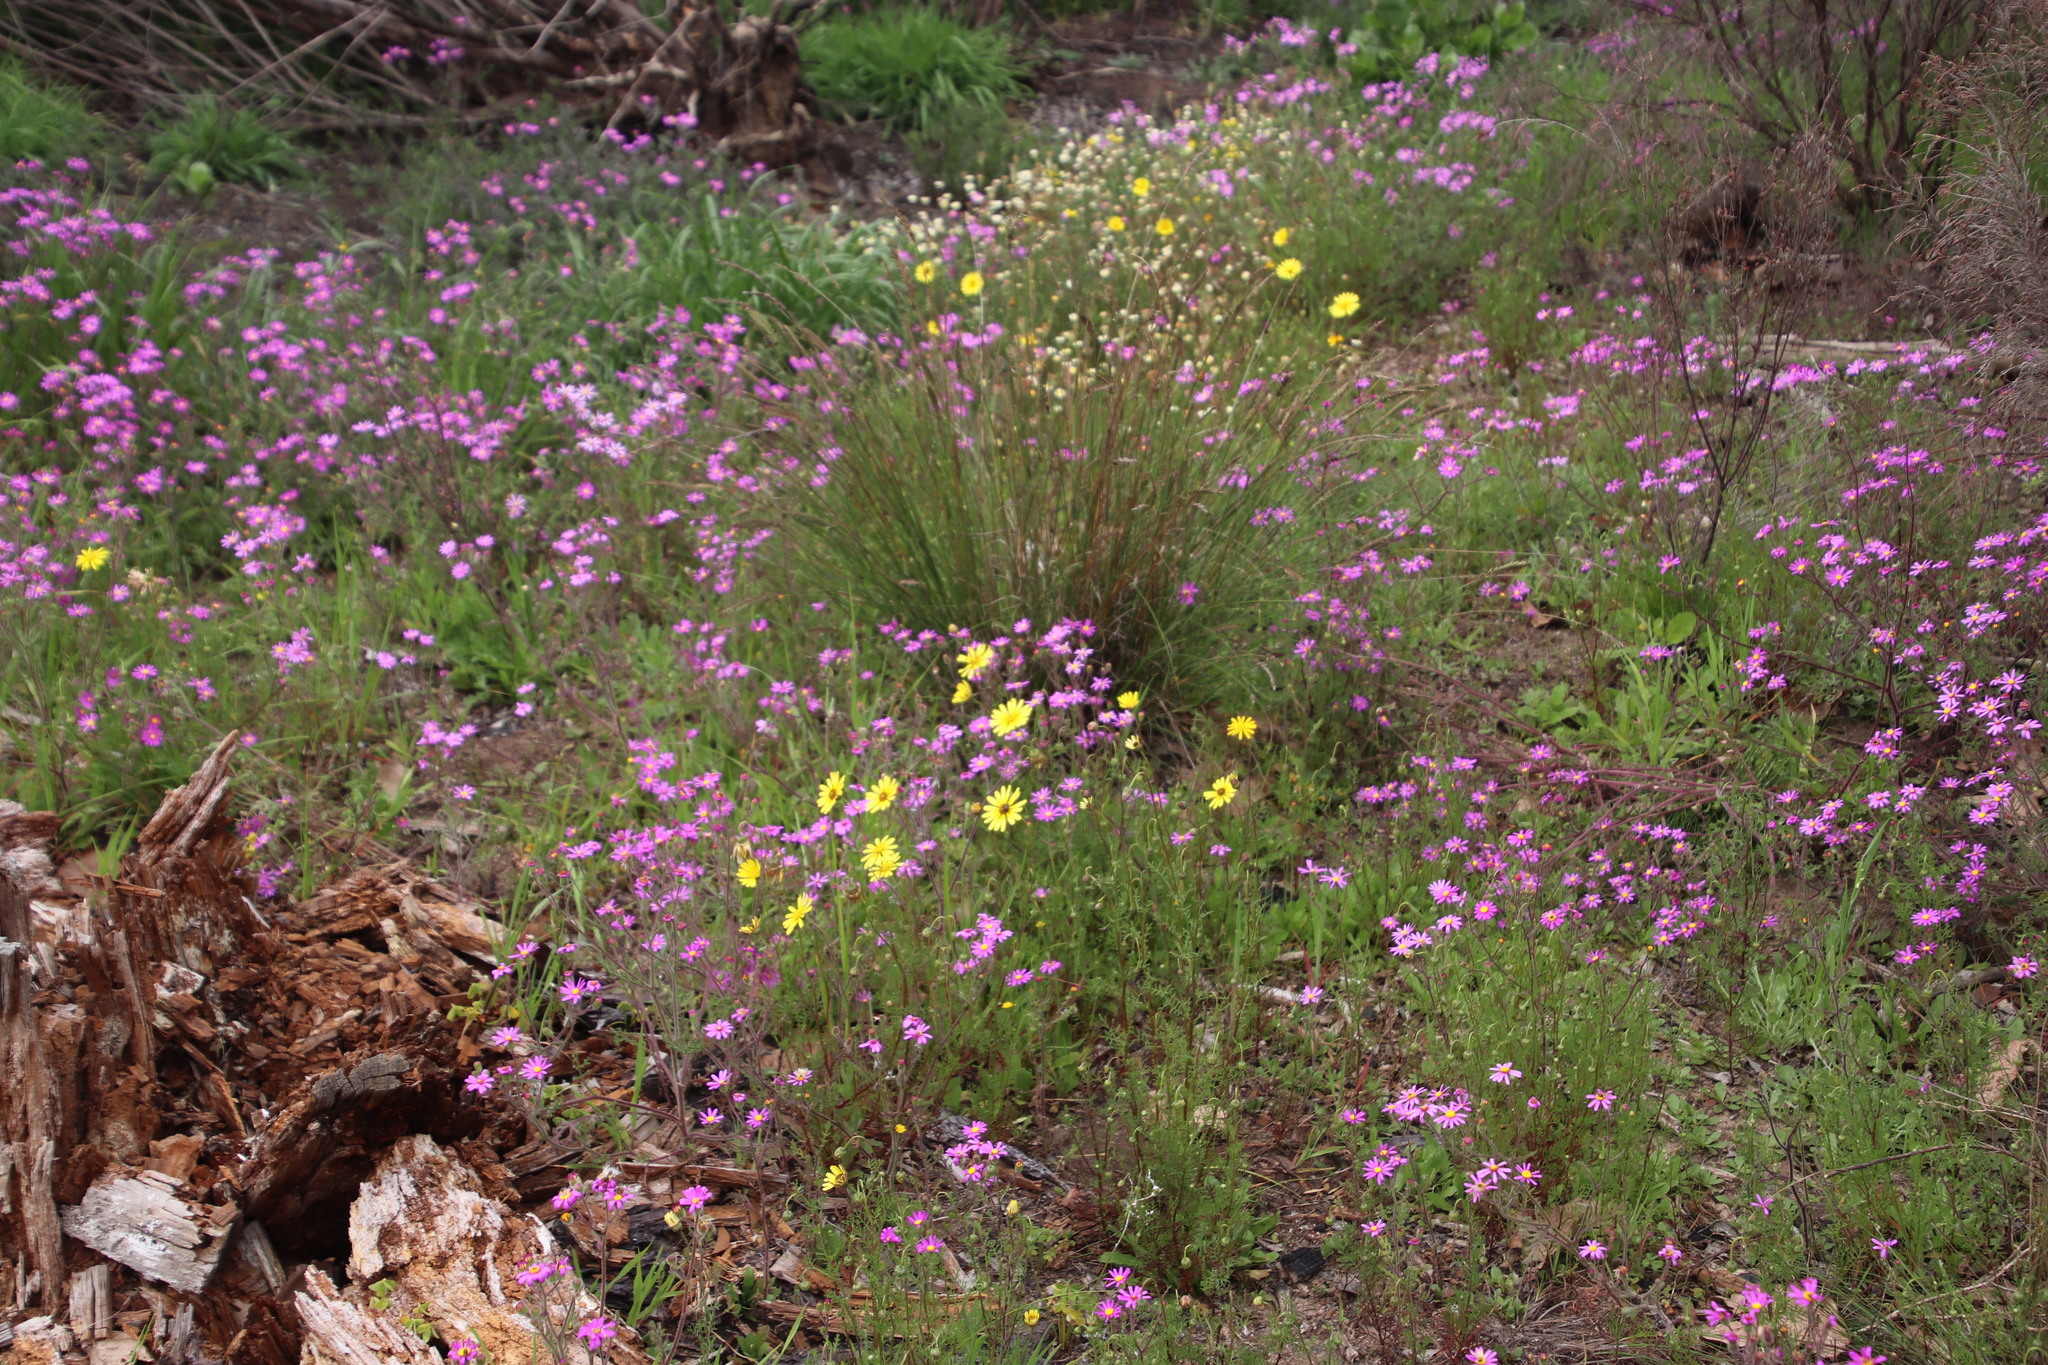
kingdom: Plantae
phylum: Tracheophyta
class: Magnoliopsida
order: Asterales
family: Asteraceae
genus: Ursinia
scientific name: Ursinia anthemoides
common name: Ursinia
